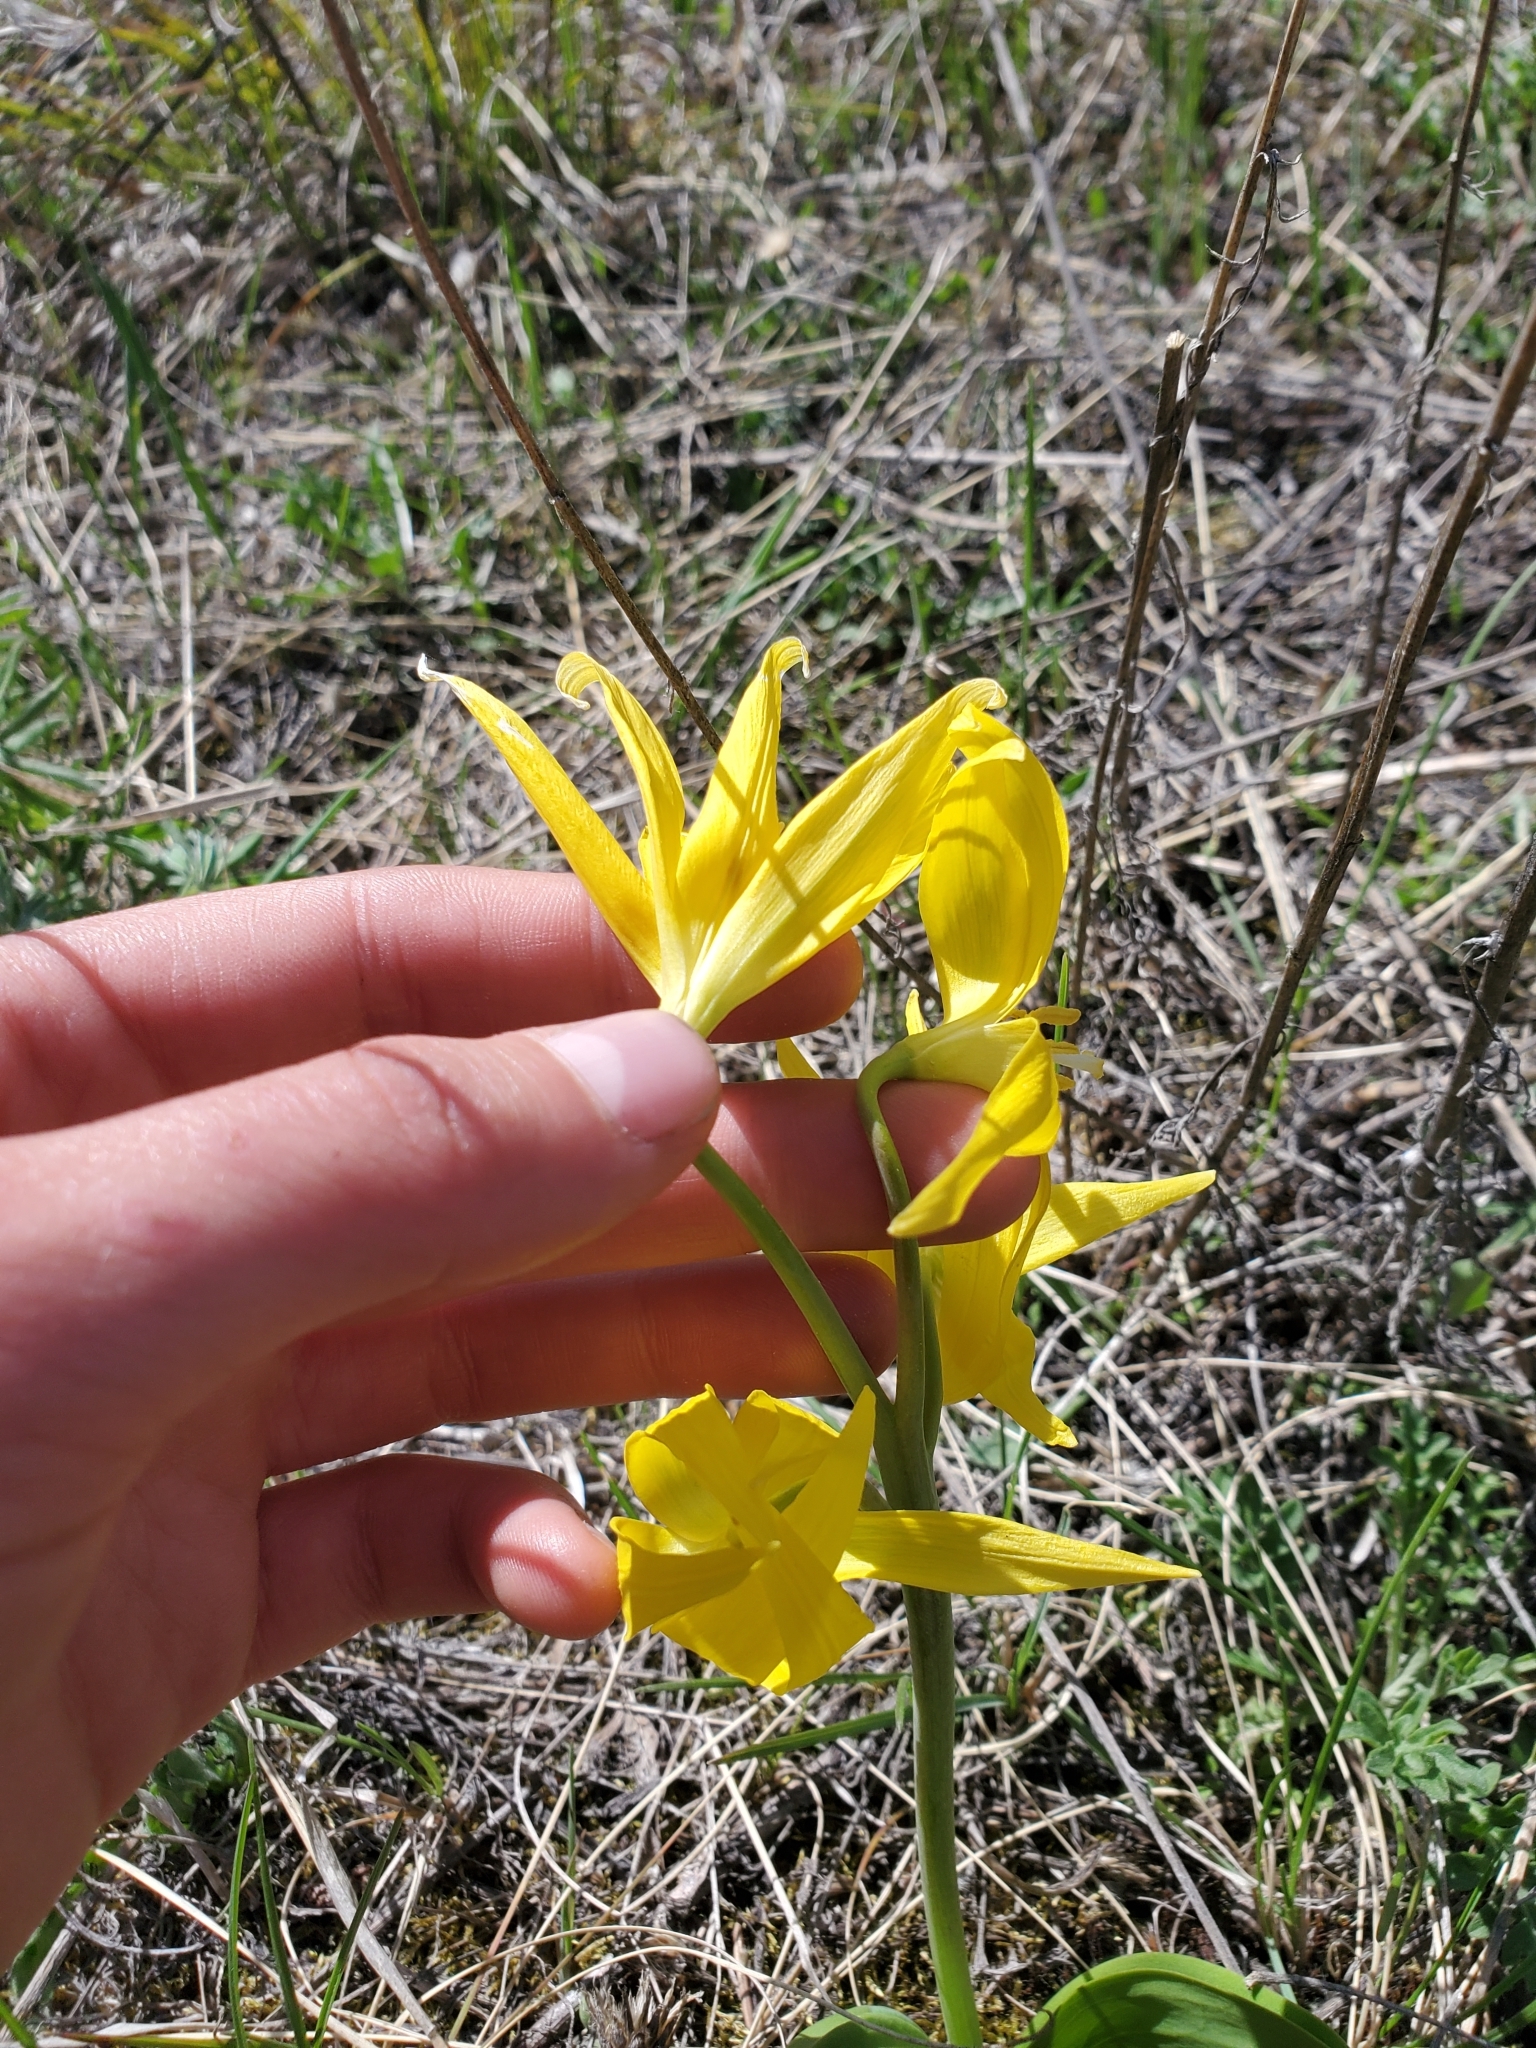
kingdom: Plantae
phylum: Tracheophyta
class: Liliopsida
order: Liliales
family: Liliaceae
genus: Erythronium
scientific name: Erythronium grandiflorum
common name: Avalanche-lily
